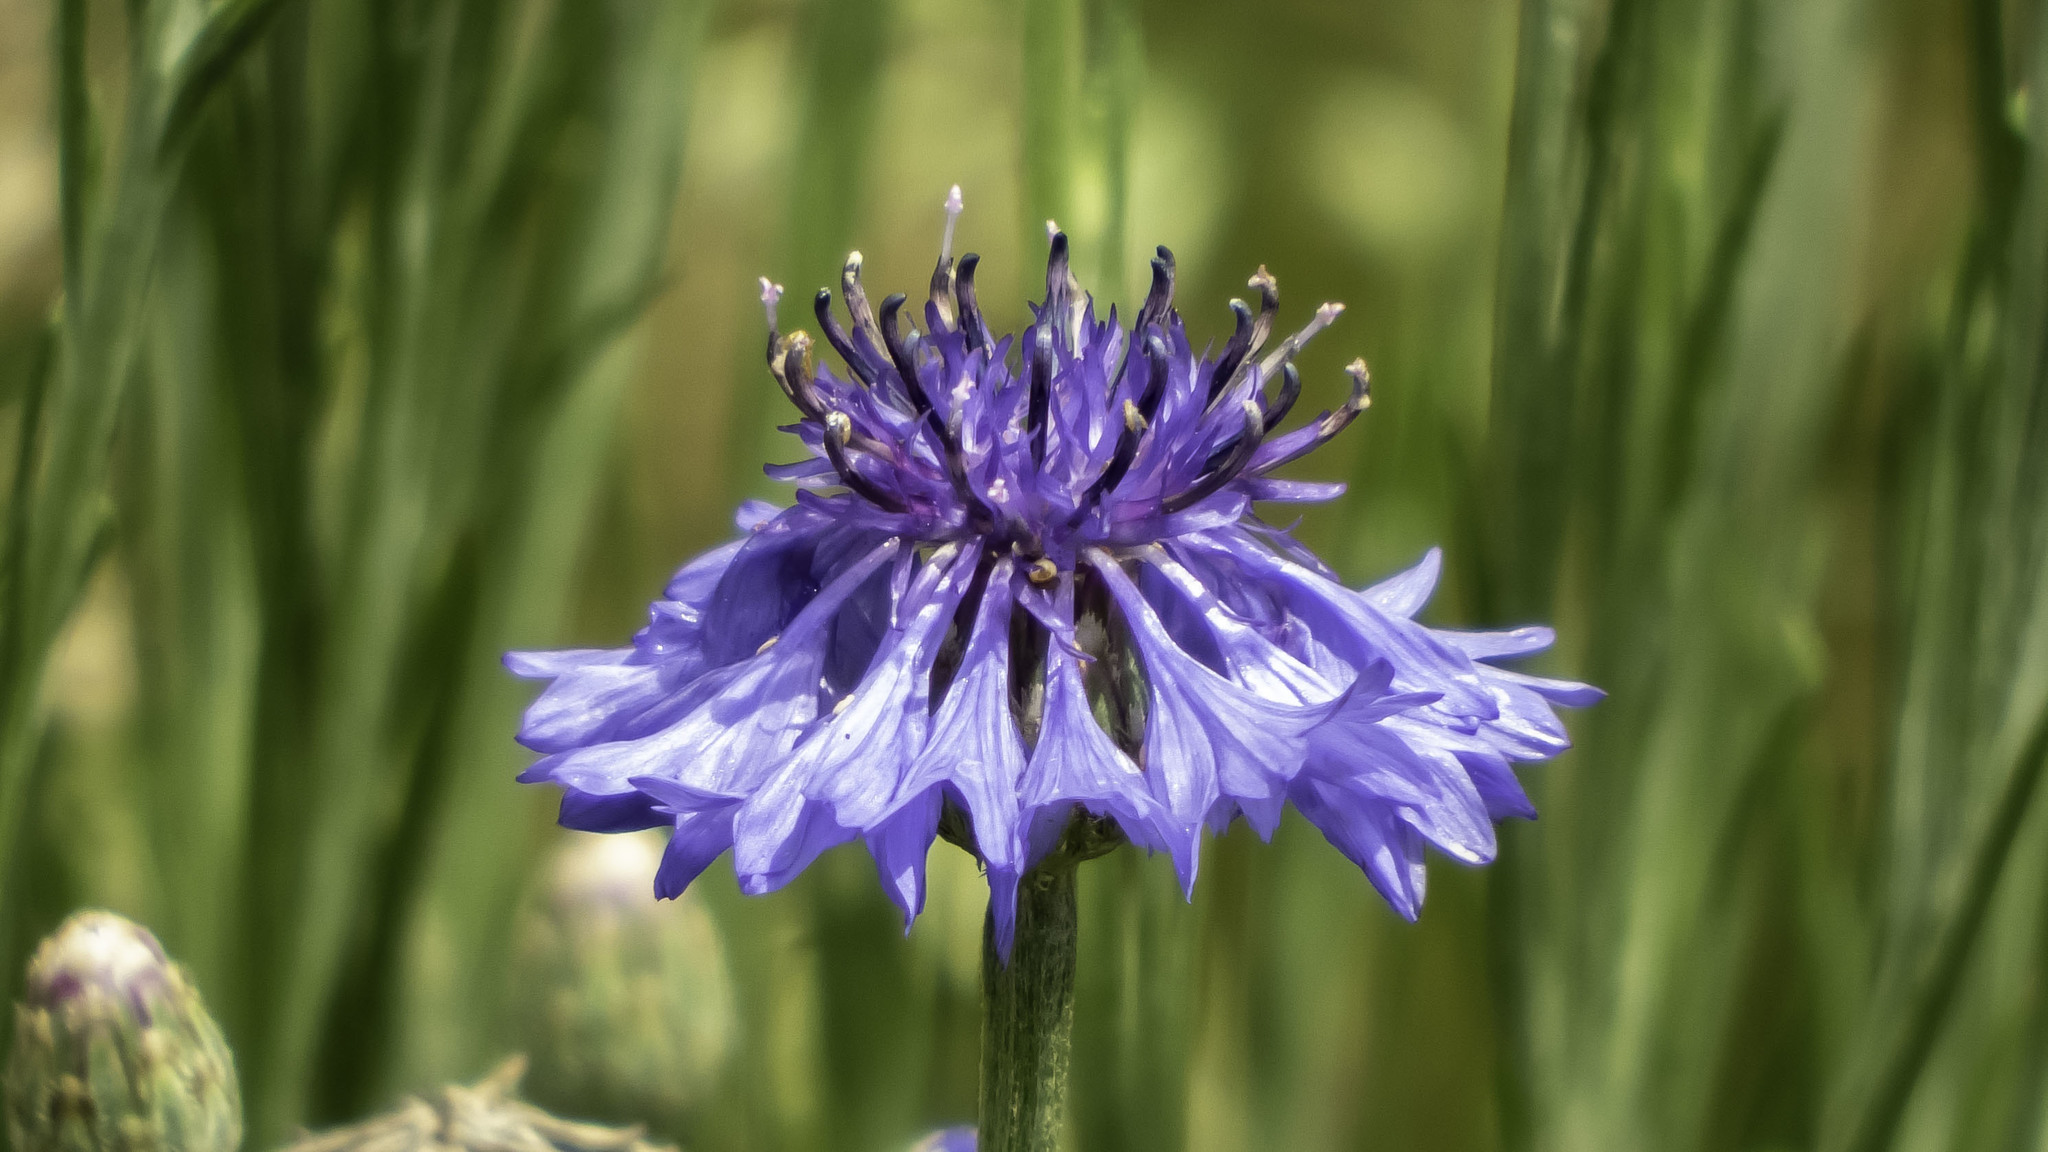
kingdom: Plantae
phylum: Tracheophyta
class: Magnoliopsida
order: Asterales
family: Asteraceae
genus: Centaurea
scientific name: Centaurea cyanus
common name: Cornflower
